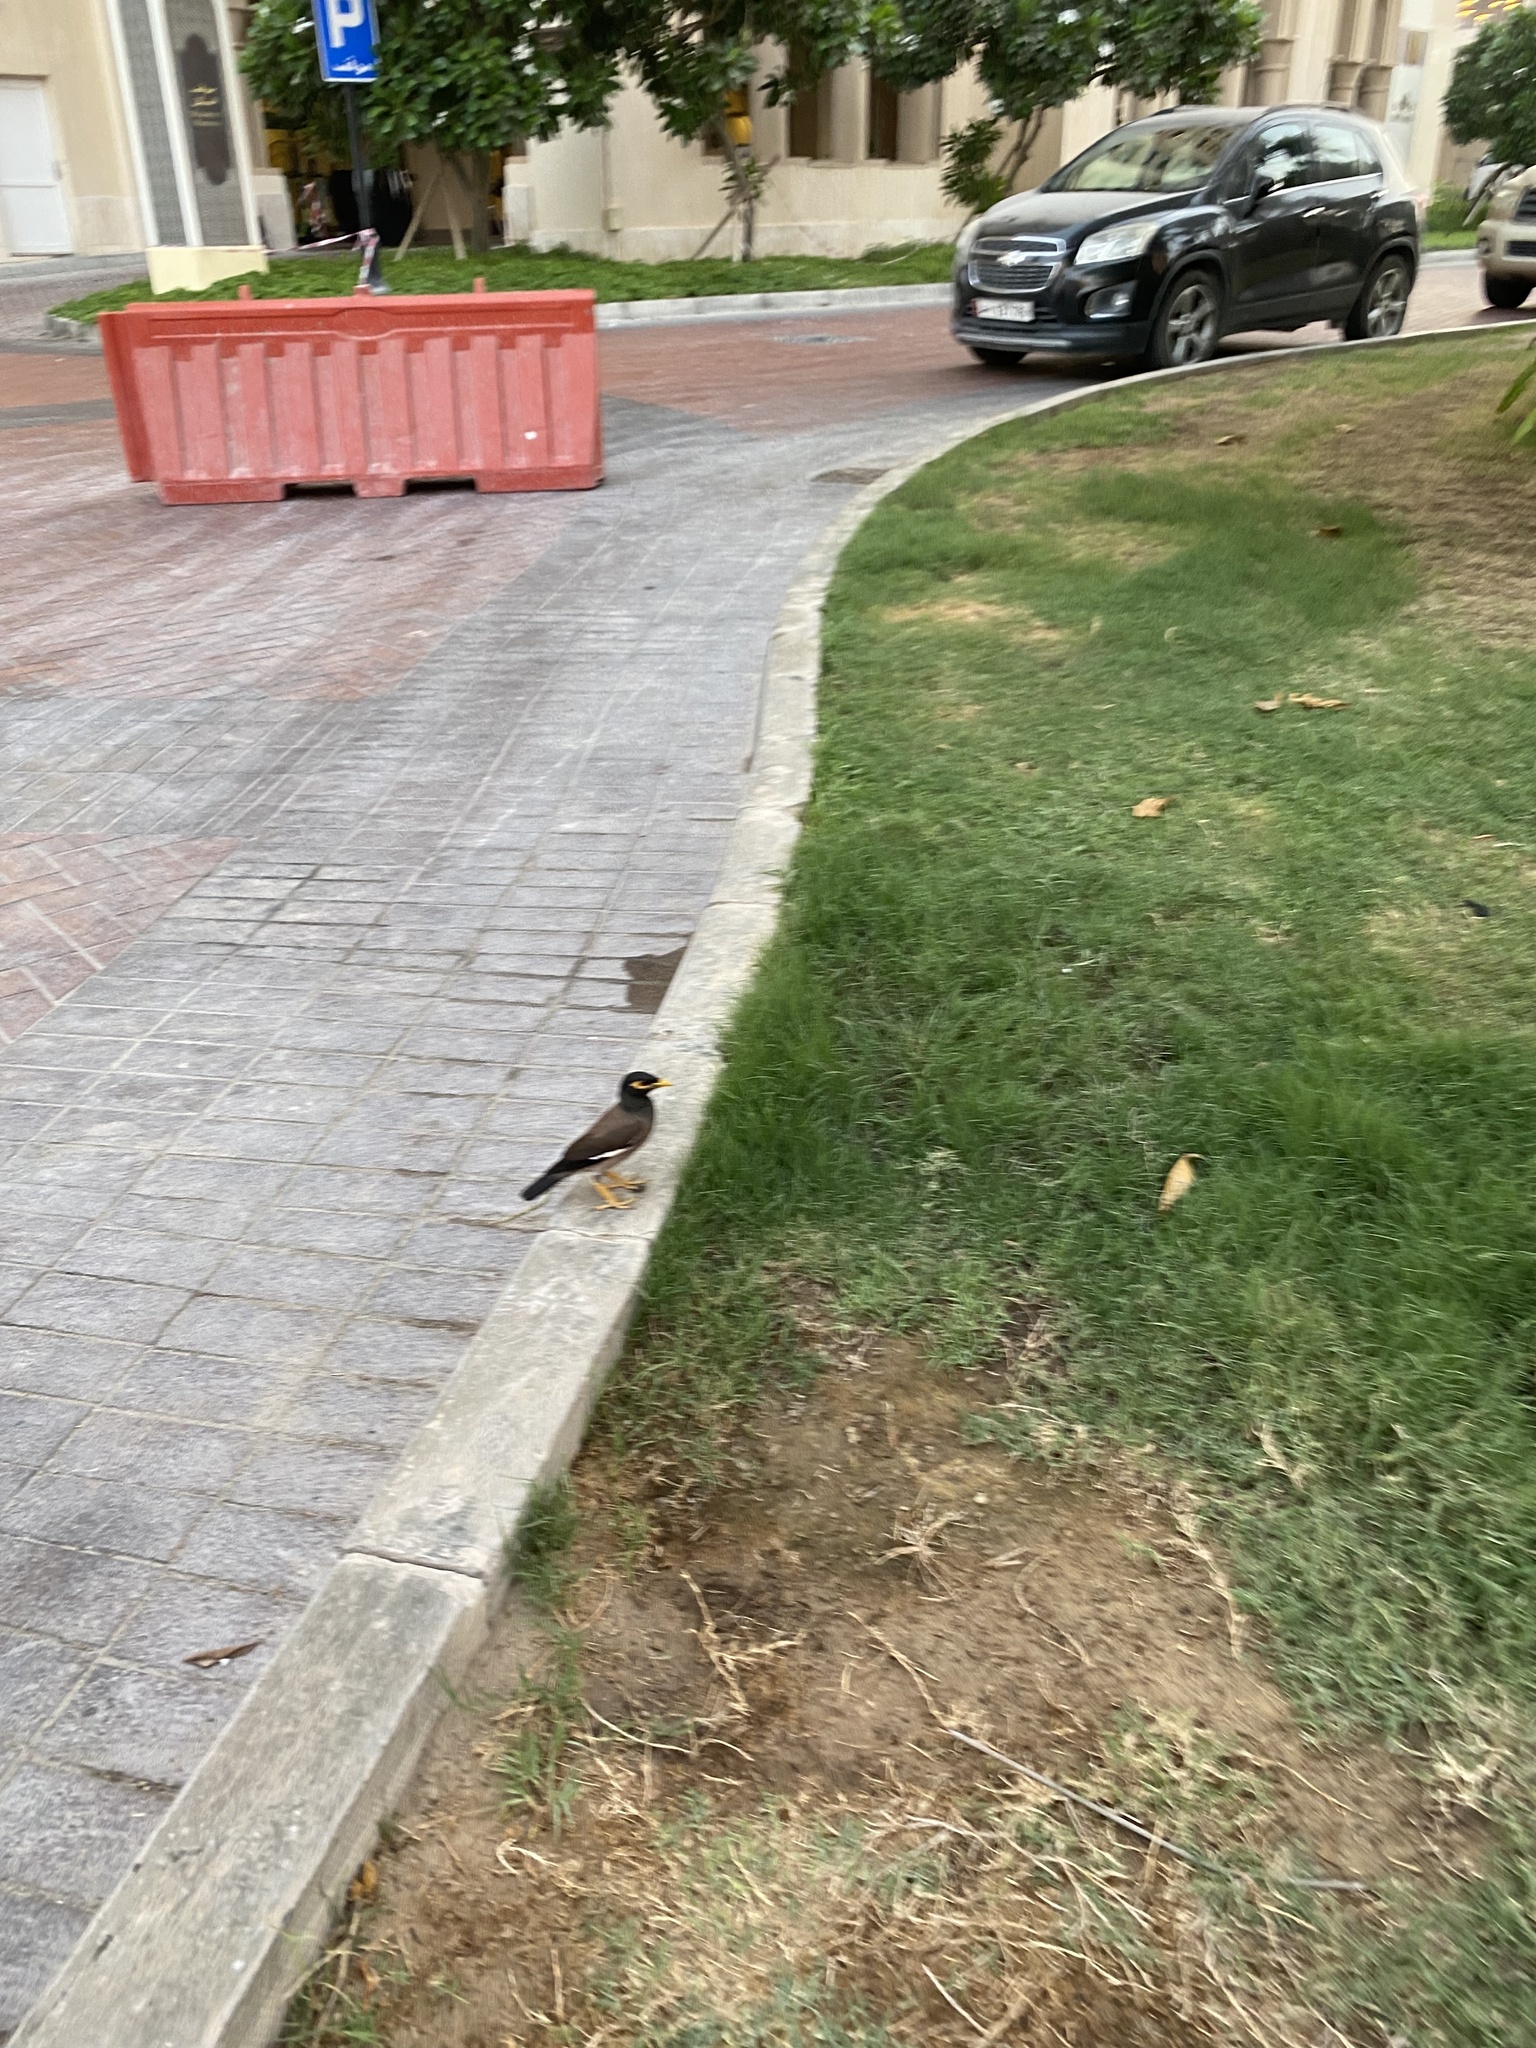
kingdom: Animalia
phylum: Chordata
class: Aves
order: Passeriformes
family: Sturnidae
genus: Acridotheres
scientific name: Acridotheres tristis
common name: Common myna
